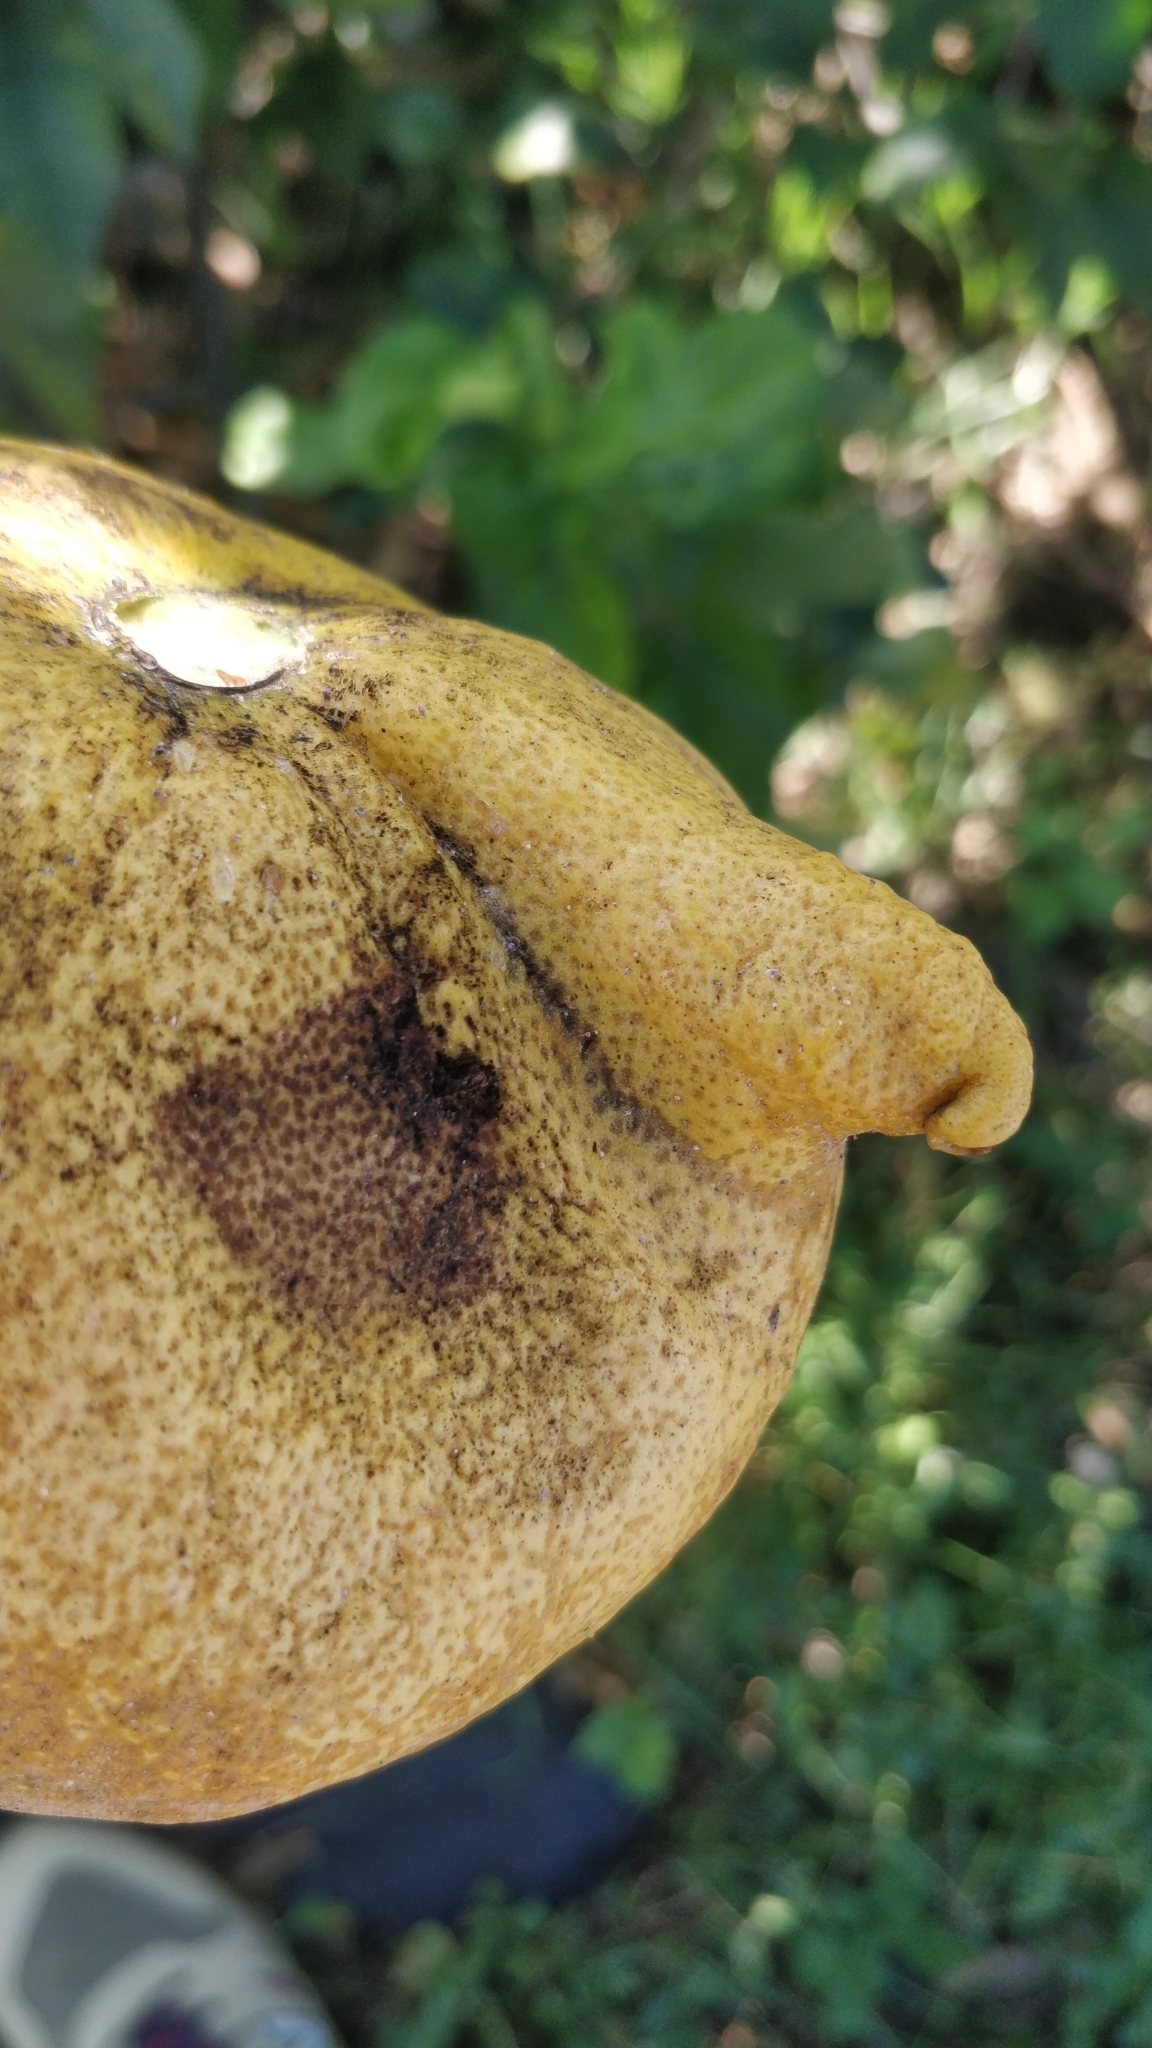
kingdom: Animalia
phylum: Arthropoda
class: Arachnida
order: Trombidiformes
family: Eriophyidae
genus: Aceria
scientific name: Aceria sheldoni
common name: Citrus bud mite
